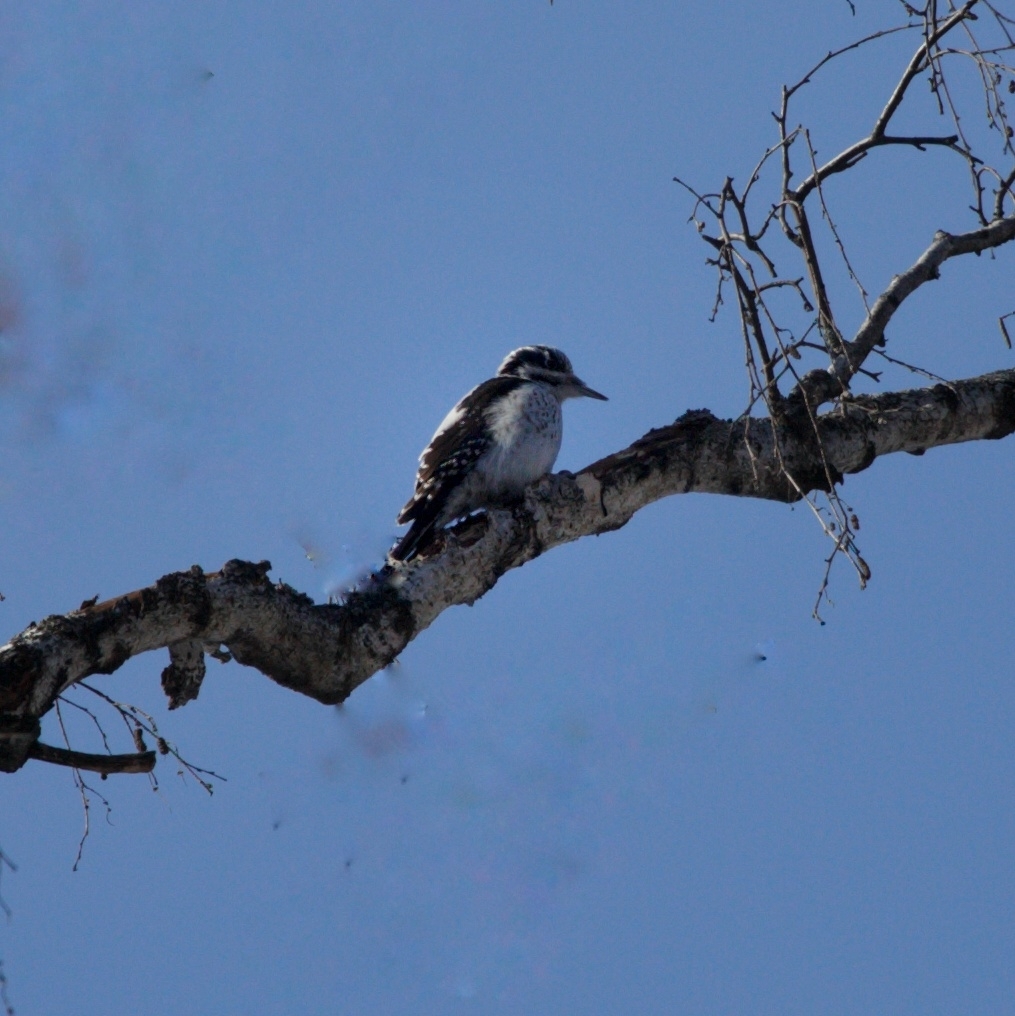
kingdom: Animalia
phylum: Chordata
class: Aves
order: Piciformes
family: Picidae
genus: Picoides
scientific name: Picoides tridactylus
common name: Eurasian three-toed woodpecker
